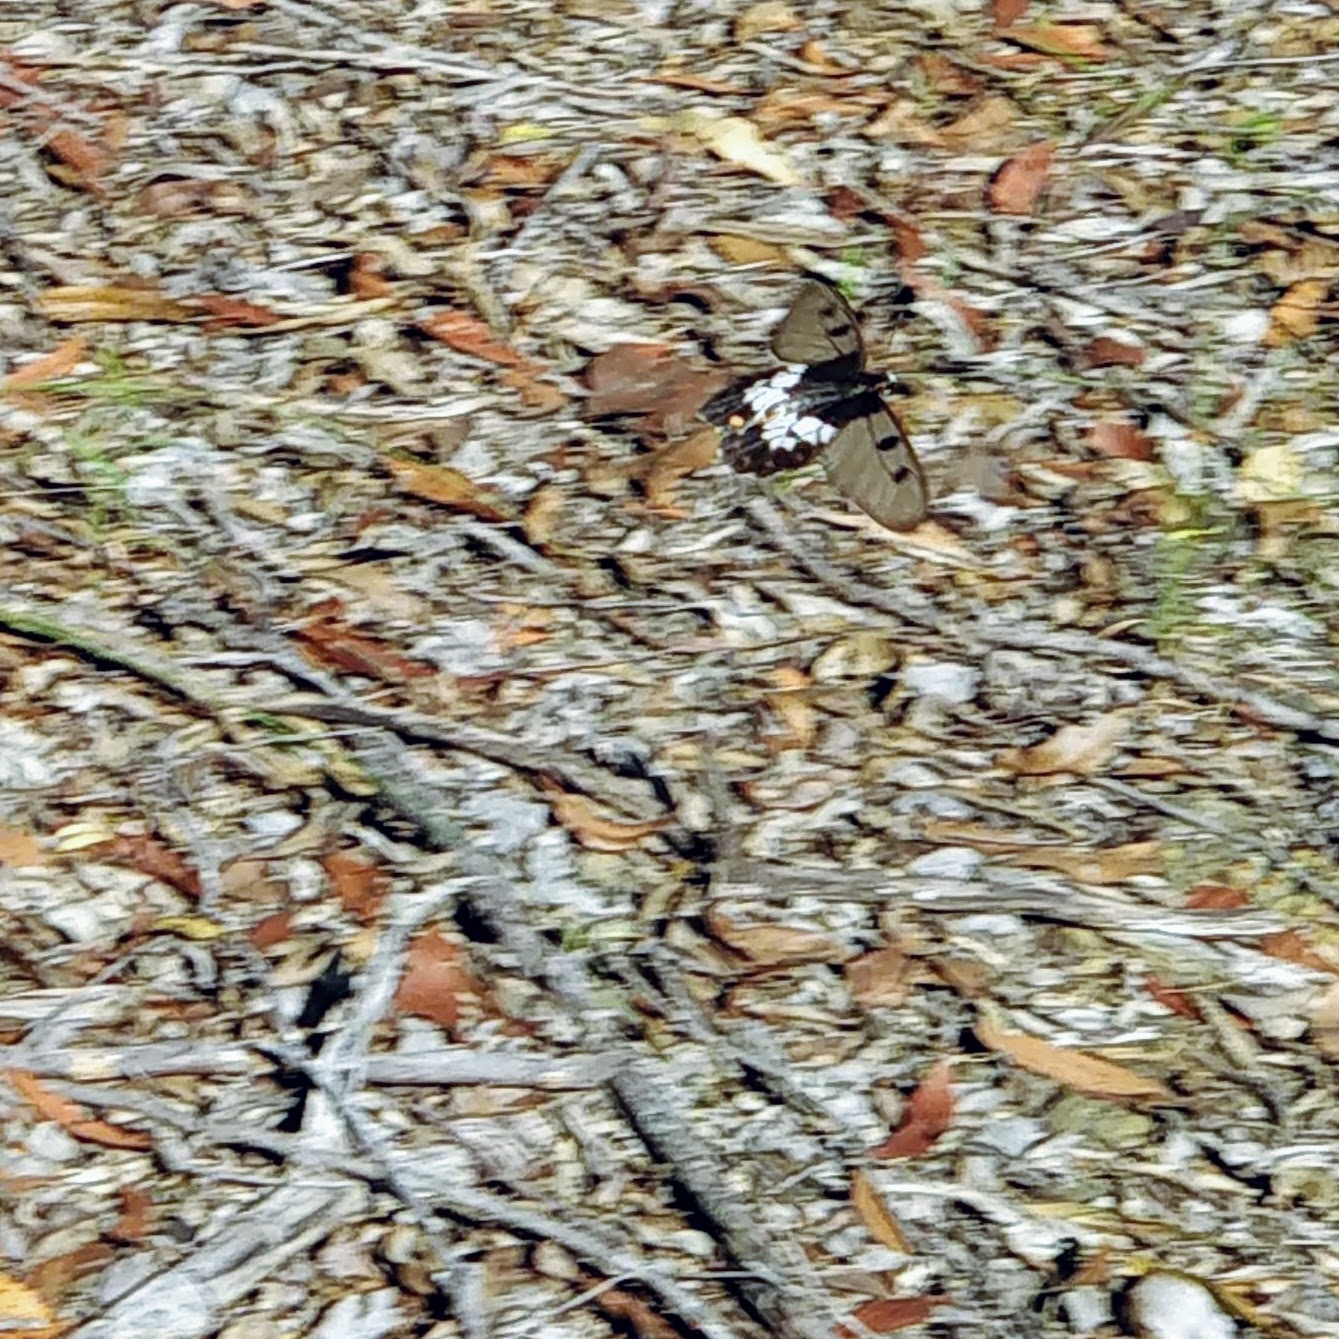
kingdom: Animalia
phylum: Arthropoda
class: Insecta
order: Lepidoptera
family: Papilionidae
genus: Cressida
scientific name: Cressida cressida
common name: Big greasy
